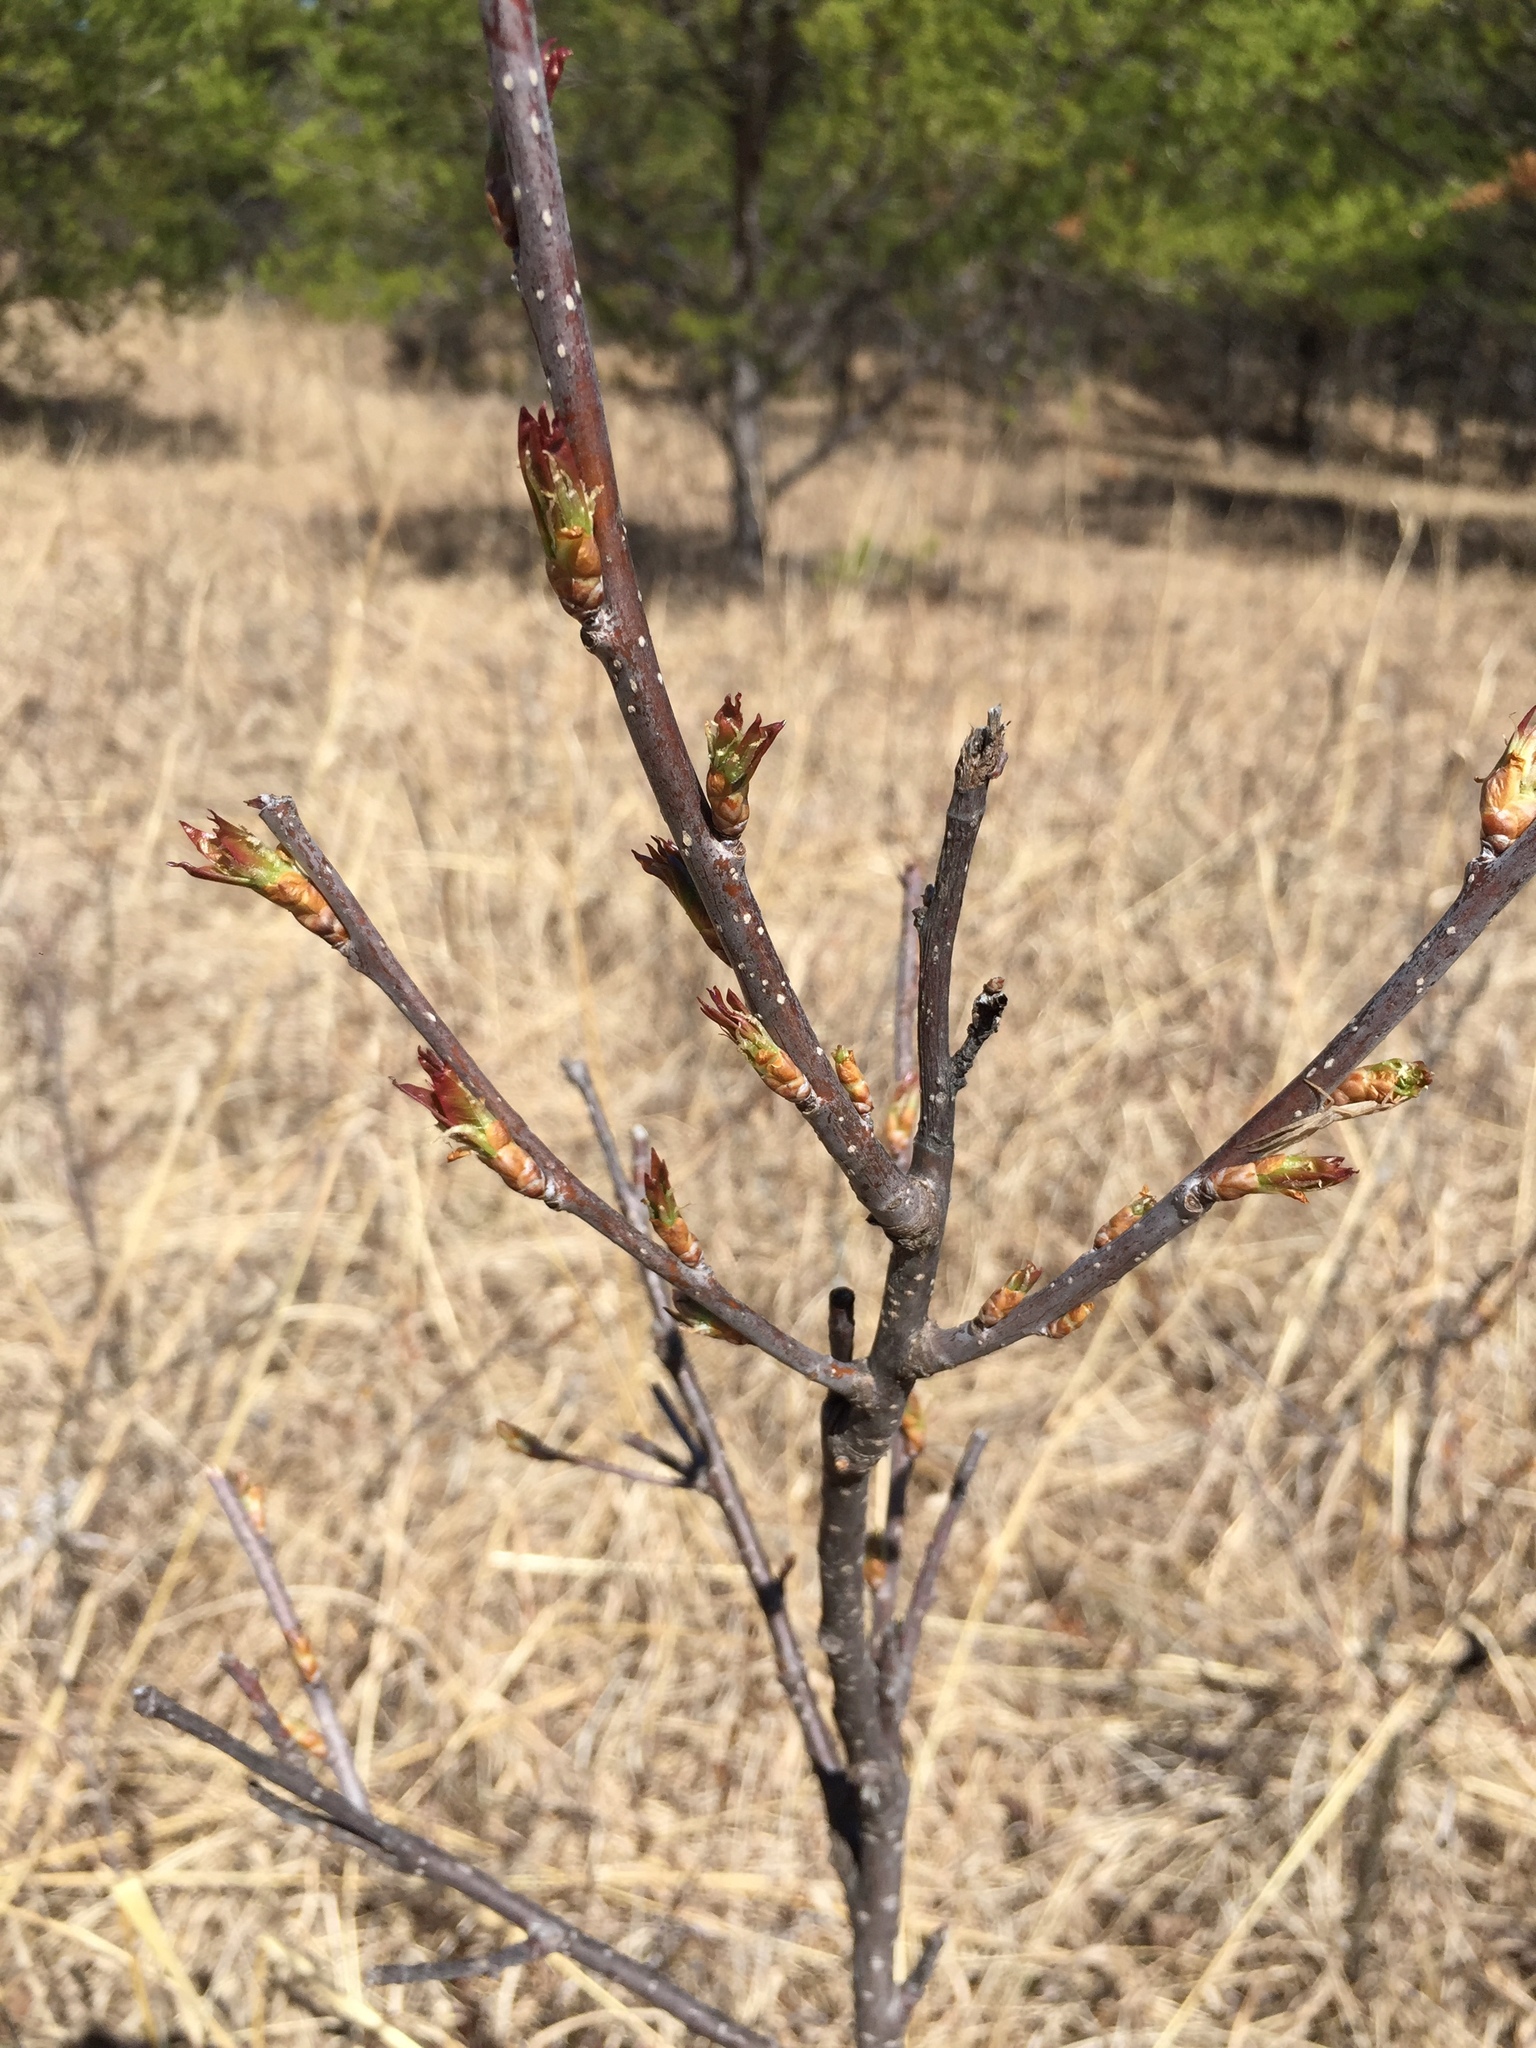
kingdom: Plantae
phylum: Tracheophyta
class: Magnoliopsida
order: Sapindales
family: Anacardiaceae
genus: Rhus
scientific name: Rhus glabra
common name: Scarlet sumac
